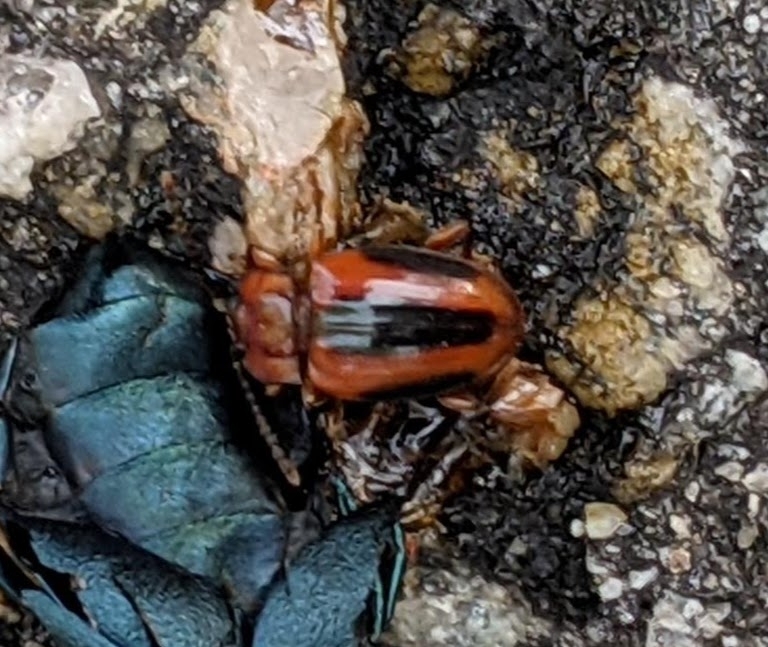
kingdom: Animalia
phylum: Arthropoda
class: Insecta
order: Coleoptera
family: Endomychidae
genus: Aphorista
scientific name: Aphorista vittata
